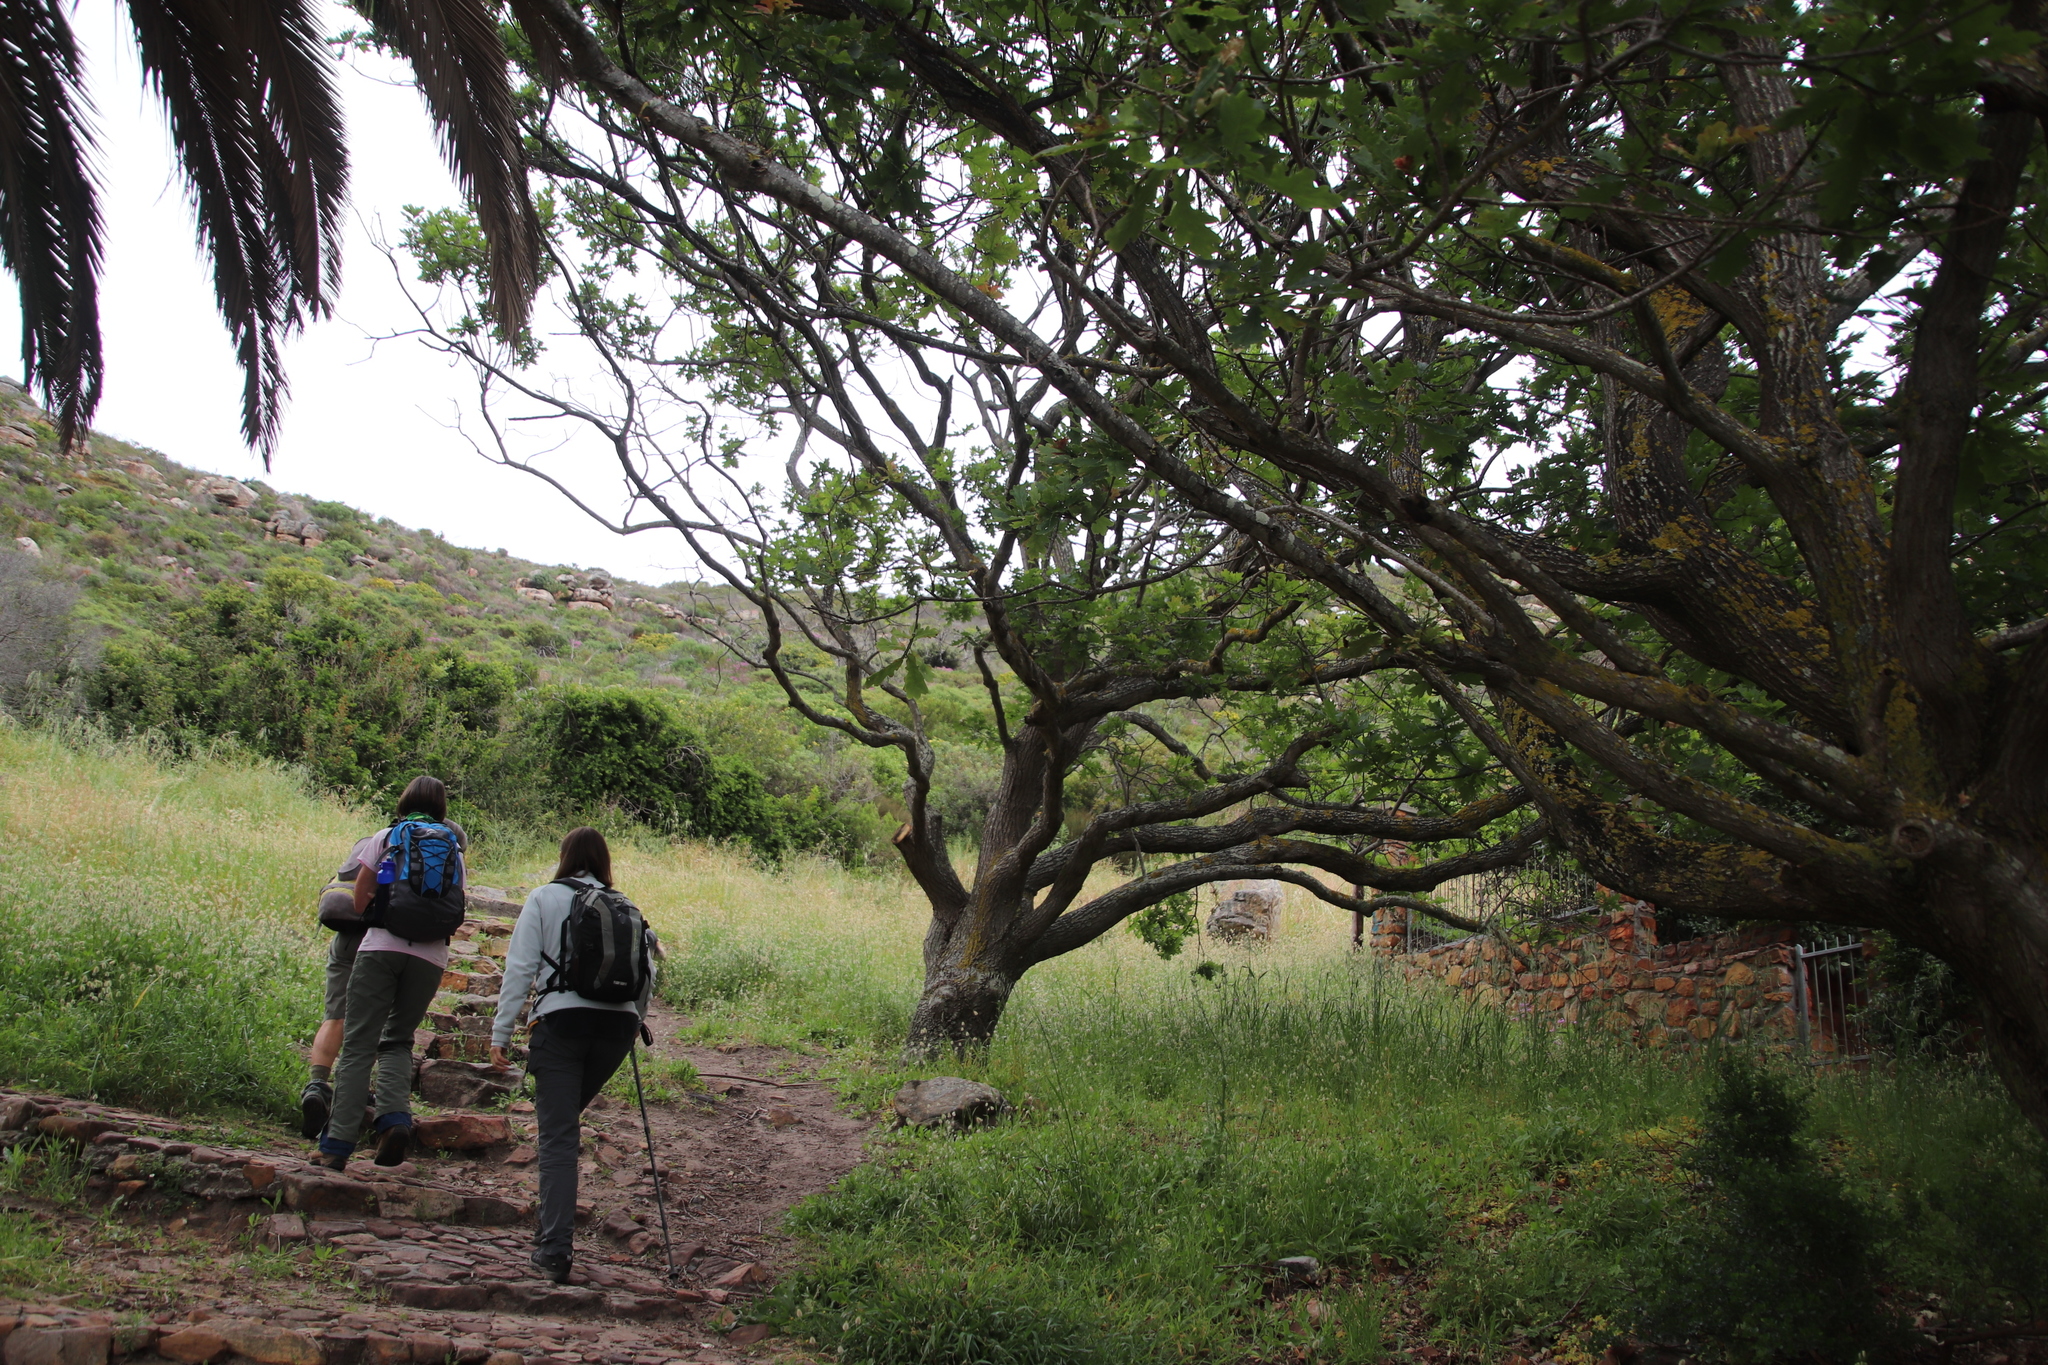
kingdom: Plantae
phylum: Tracheophyta
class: Magnoliopsida
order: Fagales
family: Fagaceae
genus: Quercus
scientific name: Quercus robur
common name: Pedunculate oak
